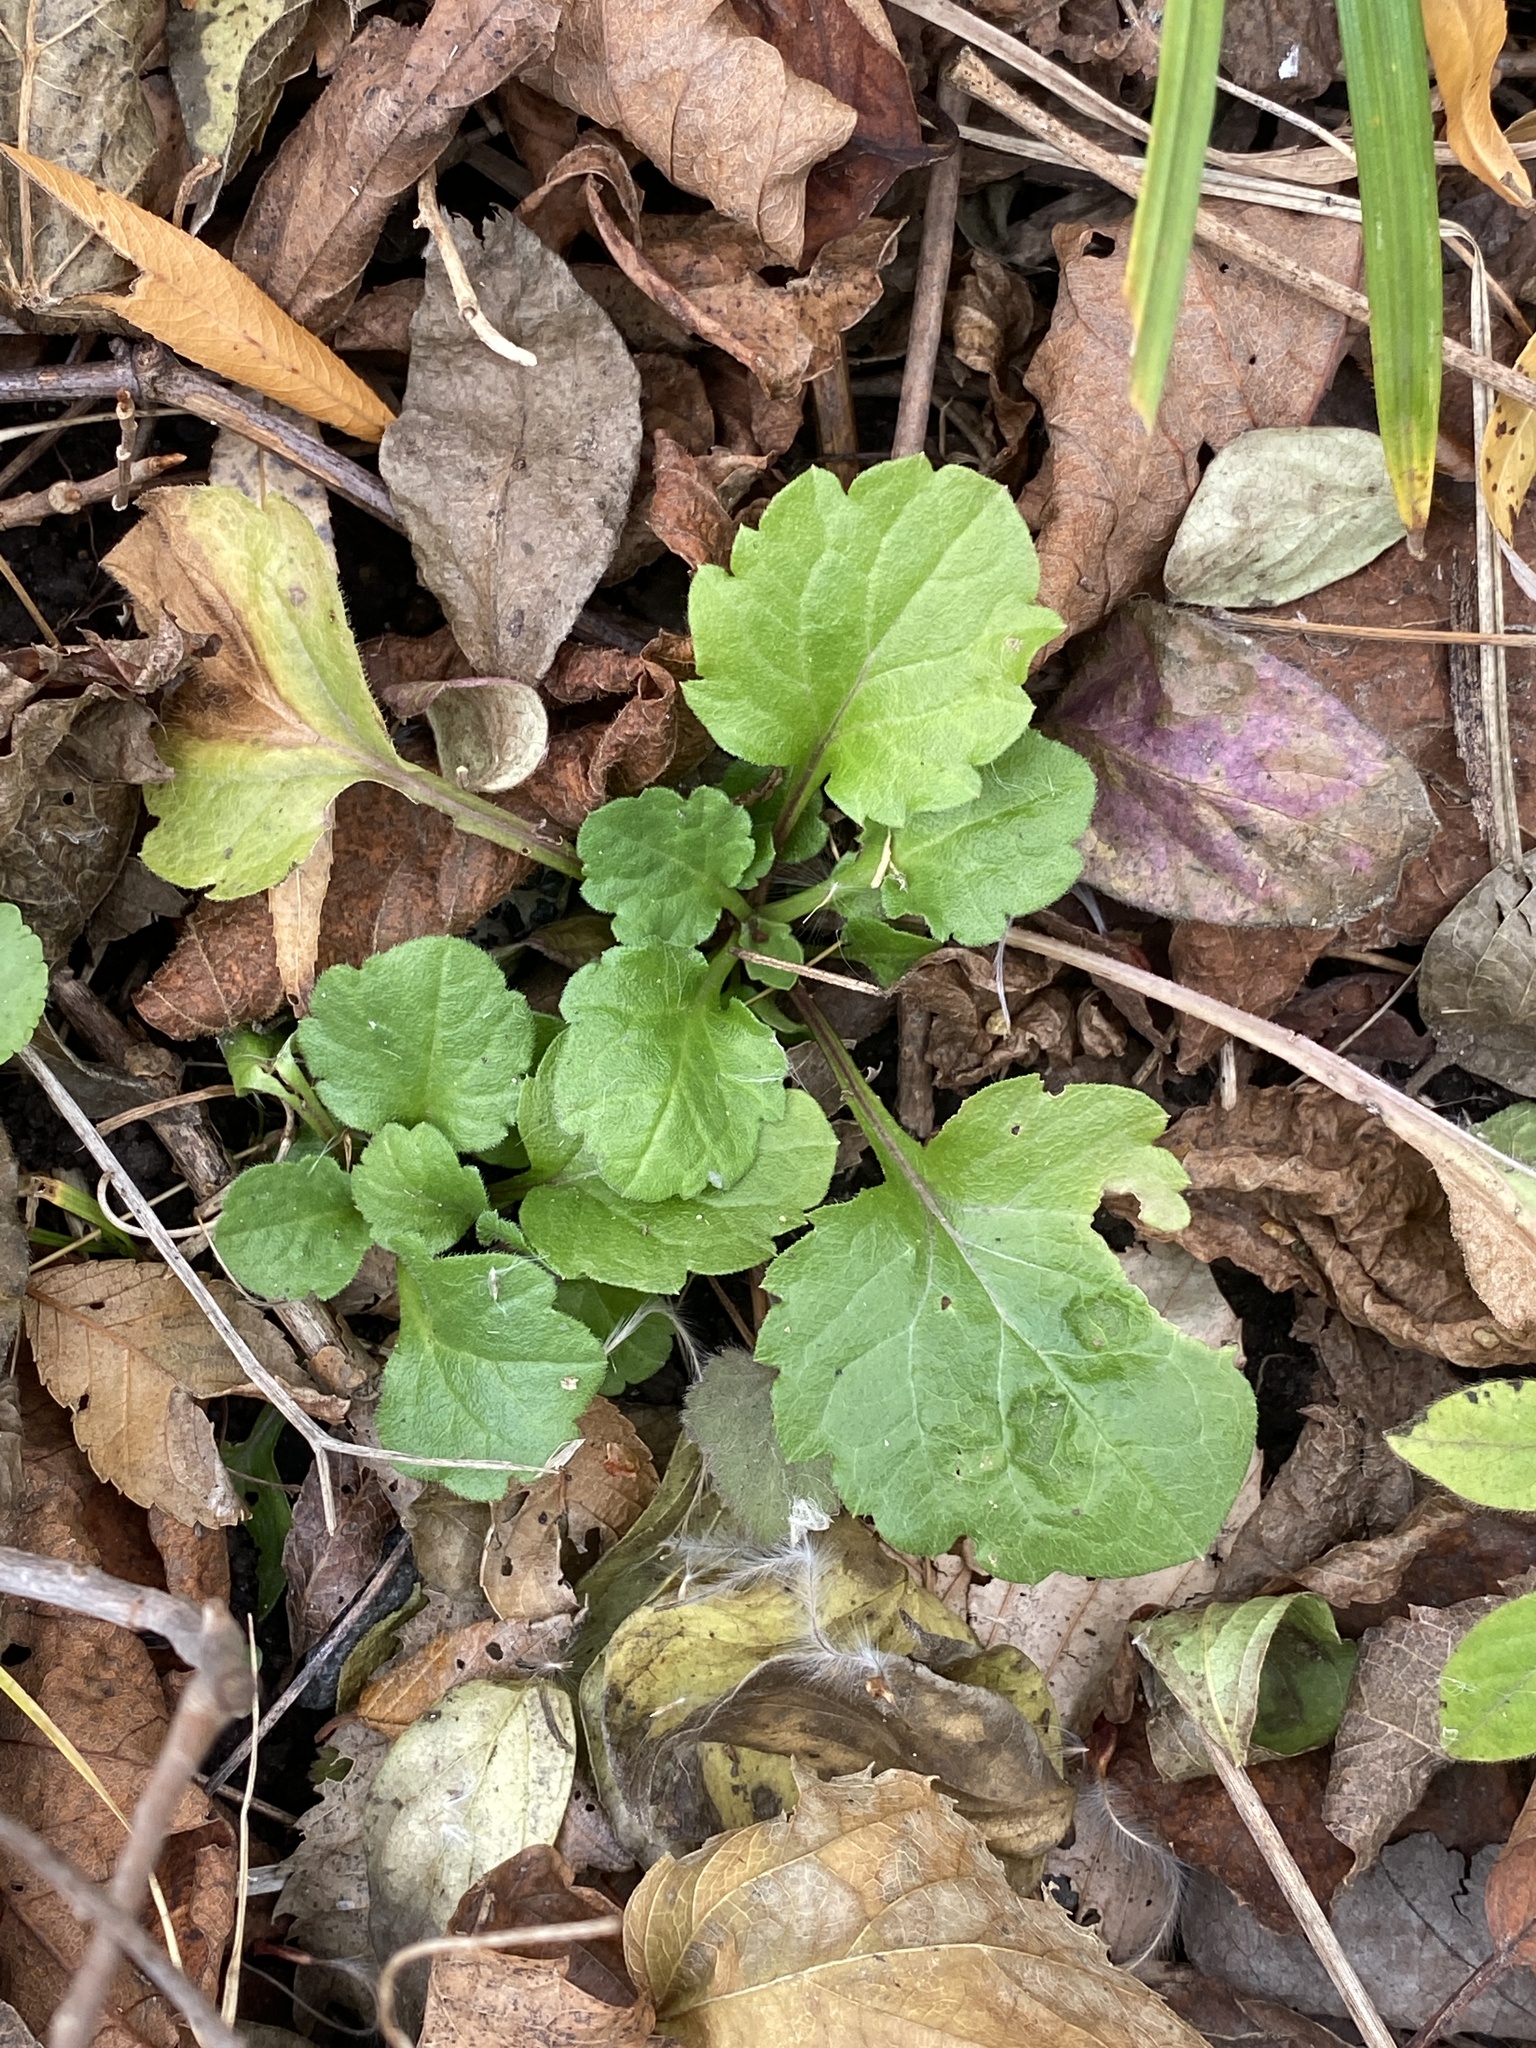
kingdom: Plantae
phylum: Tracheophyta
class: Magnoliopsida
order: Asterales
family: Asteraceae
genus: Erigeron
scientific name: Erigeron annuus
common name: Tall fleabane
